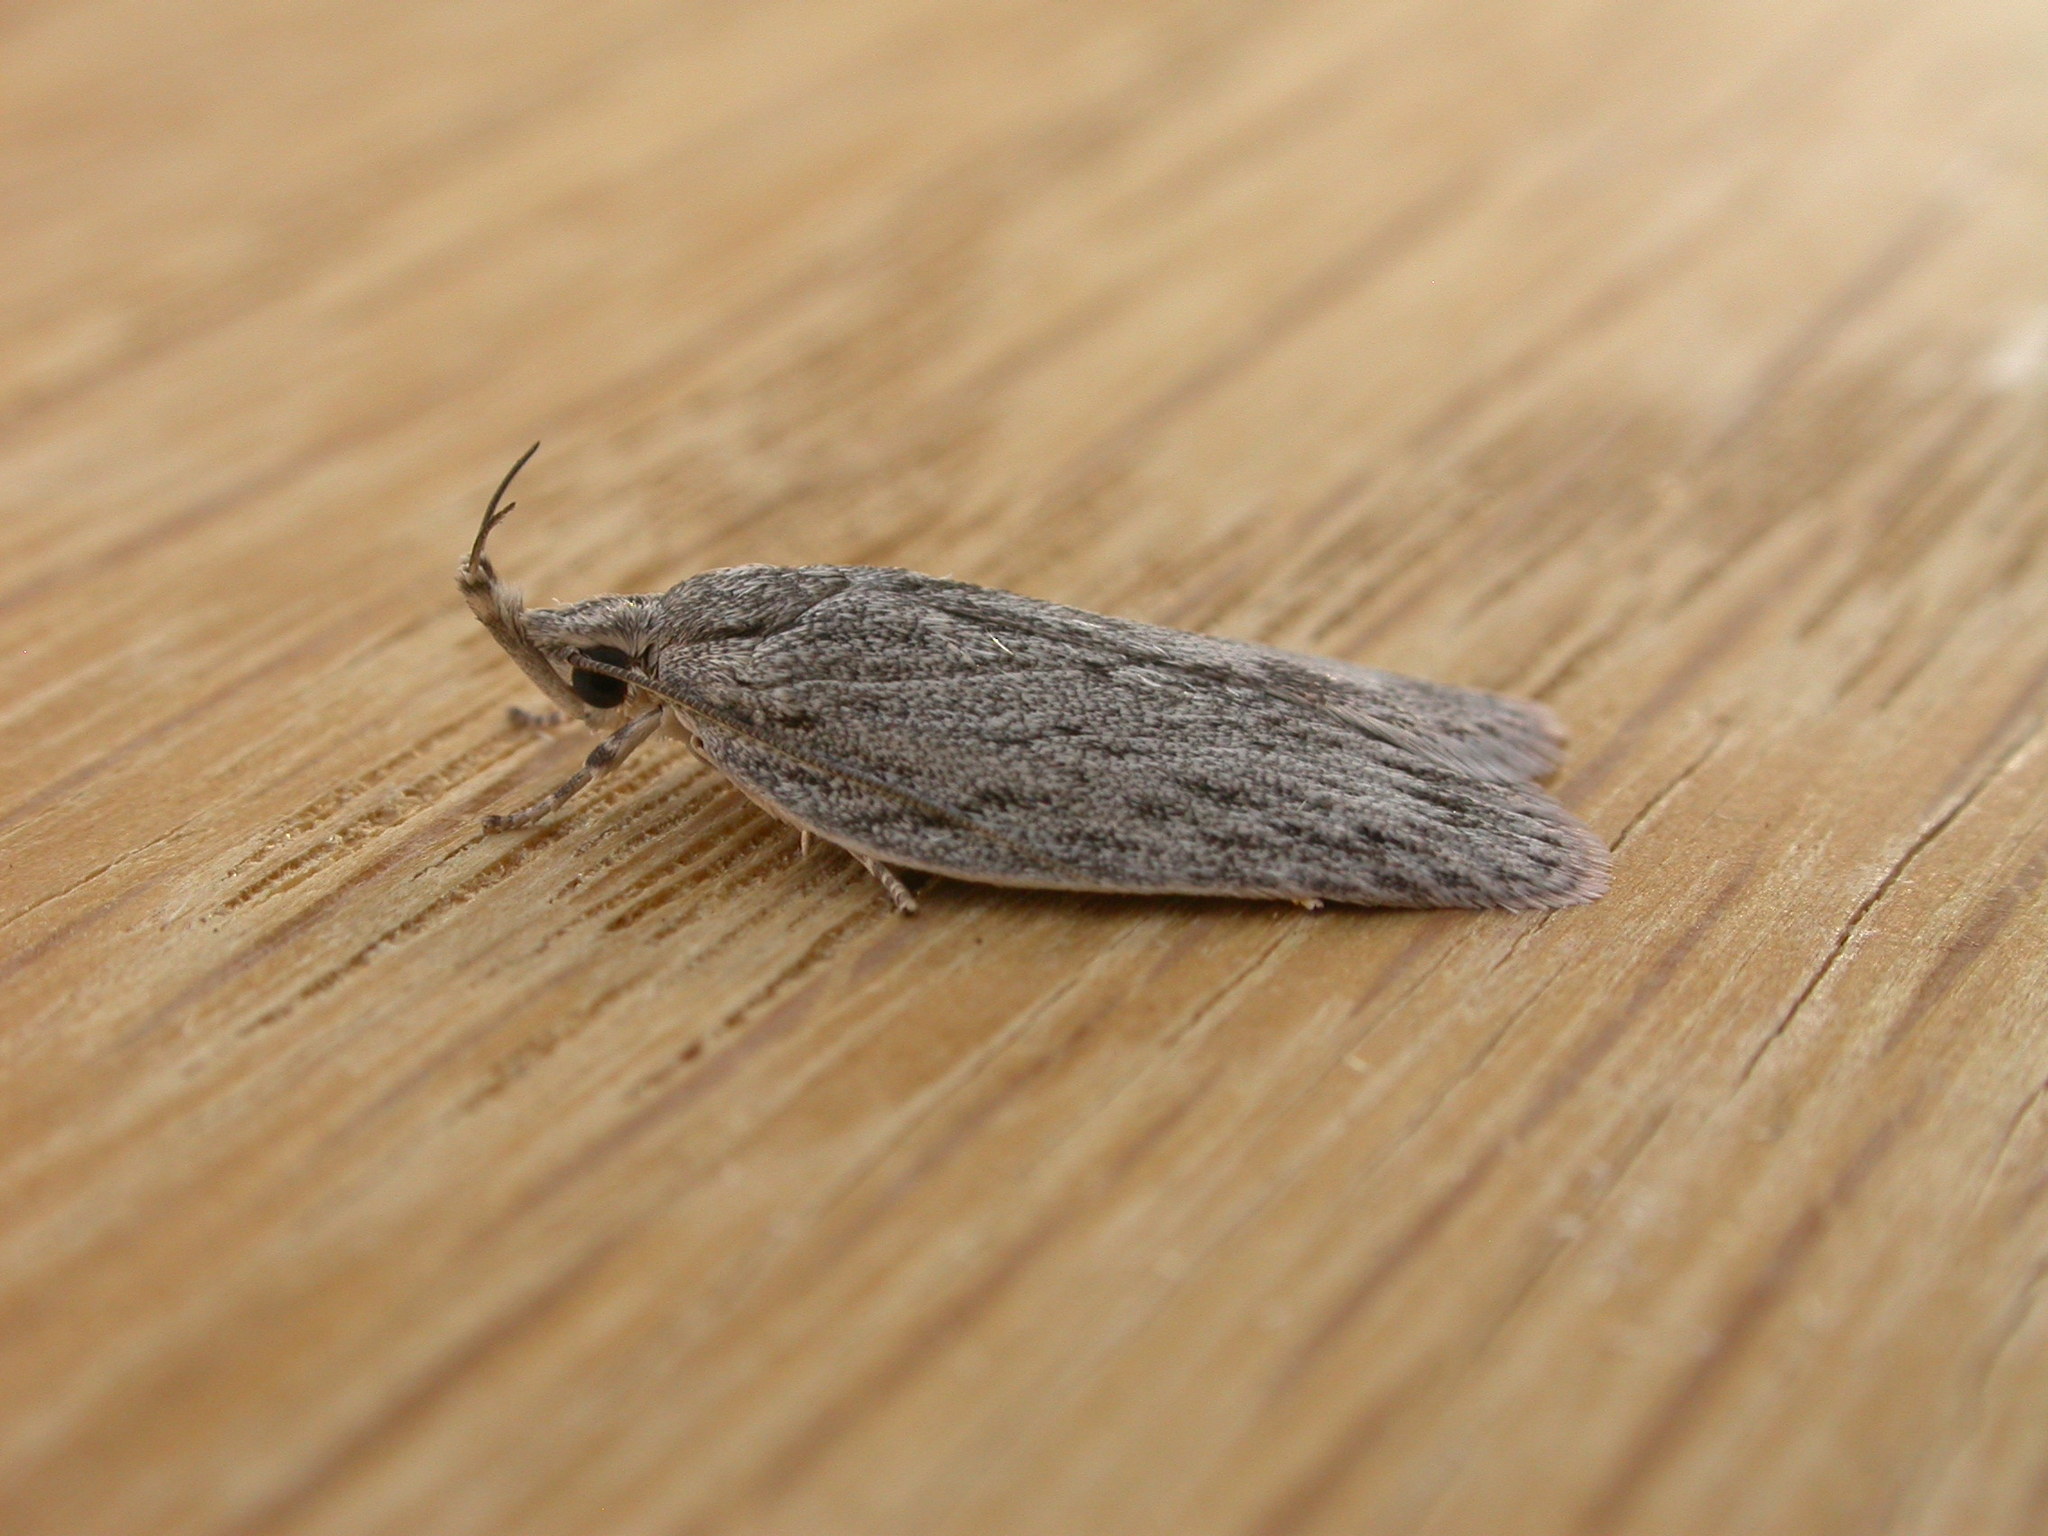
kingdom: Animalia
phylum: Arthropoda
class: Insecta
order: Lepidoptera
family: Depressariidae
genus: Pedois
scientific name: Pedois lewinella
